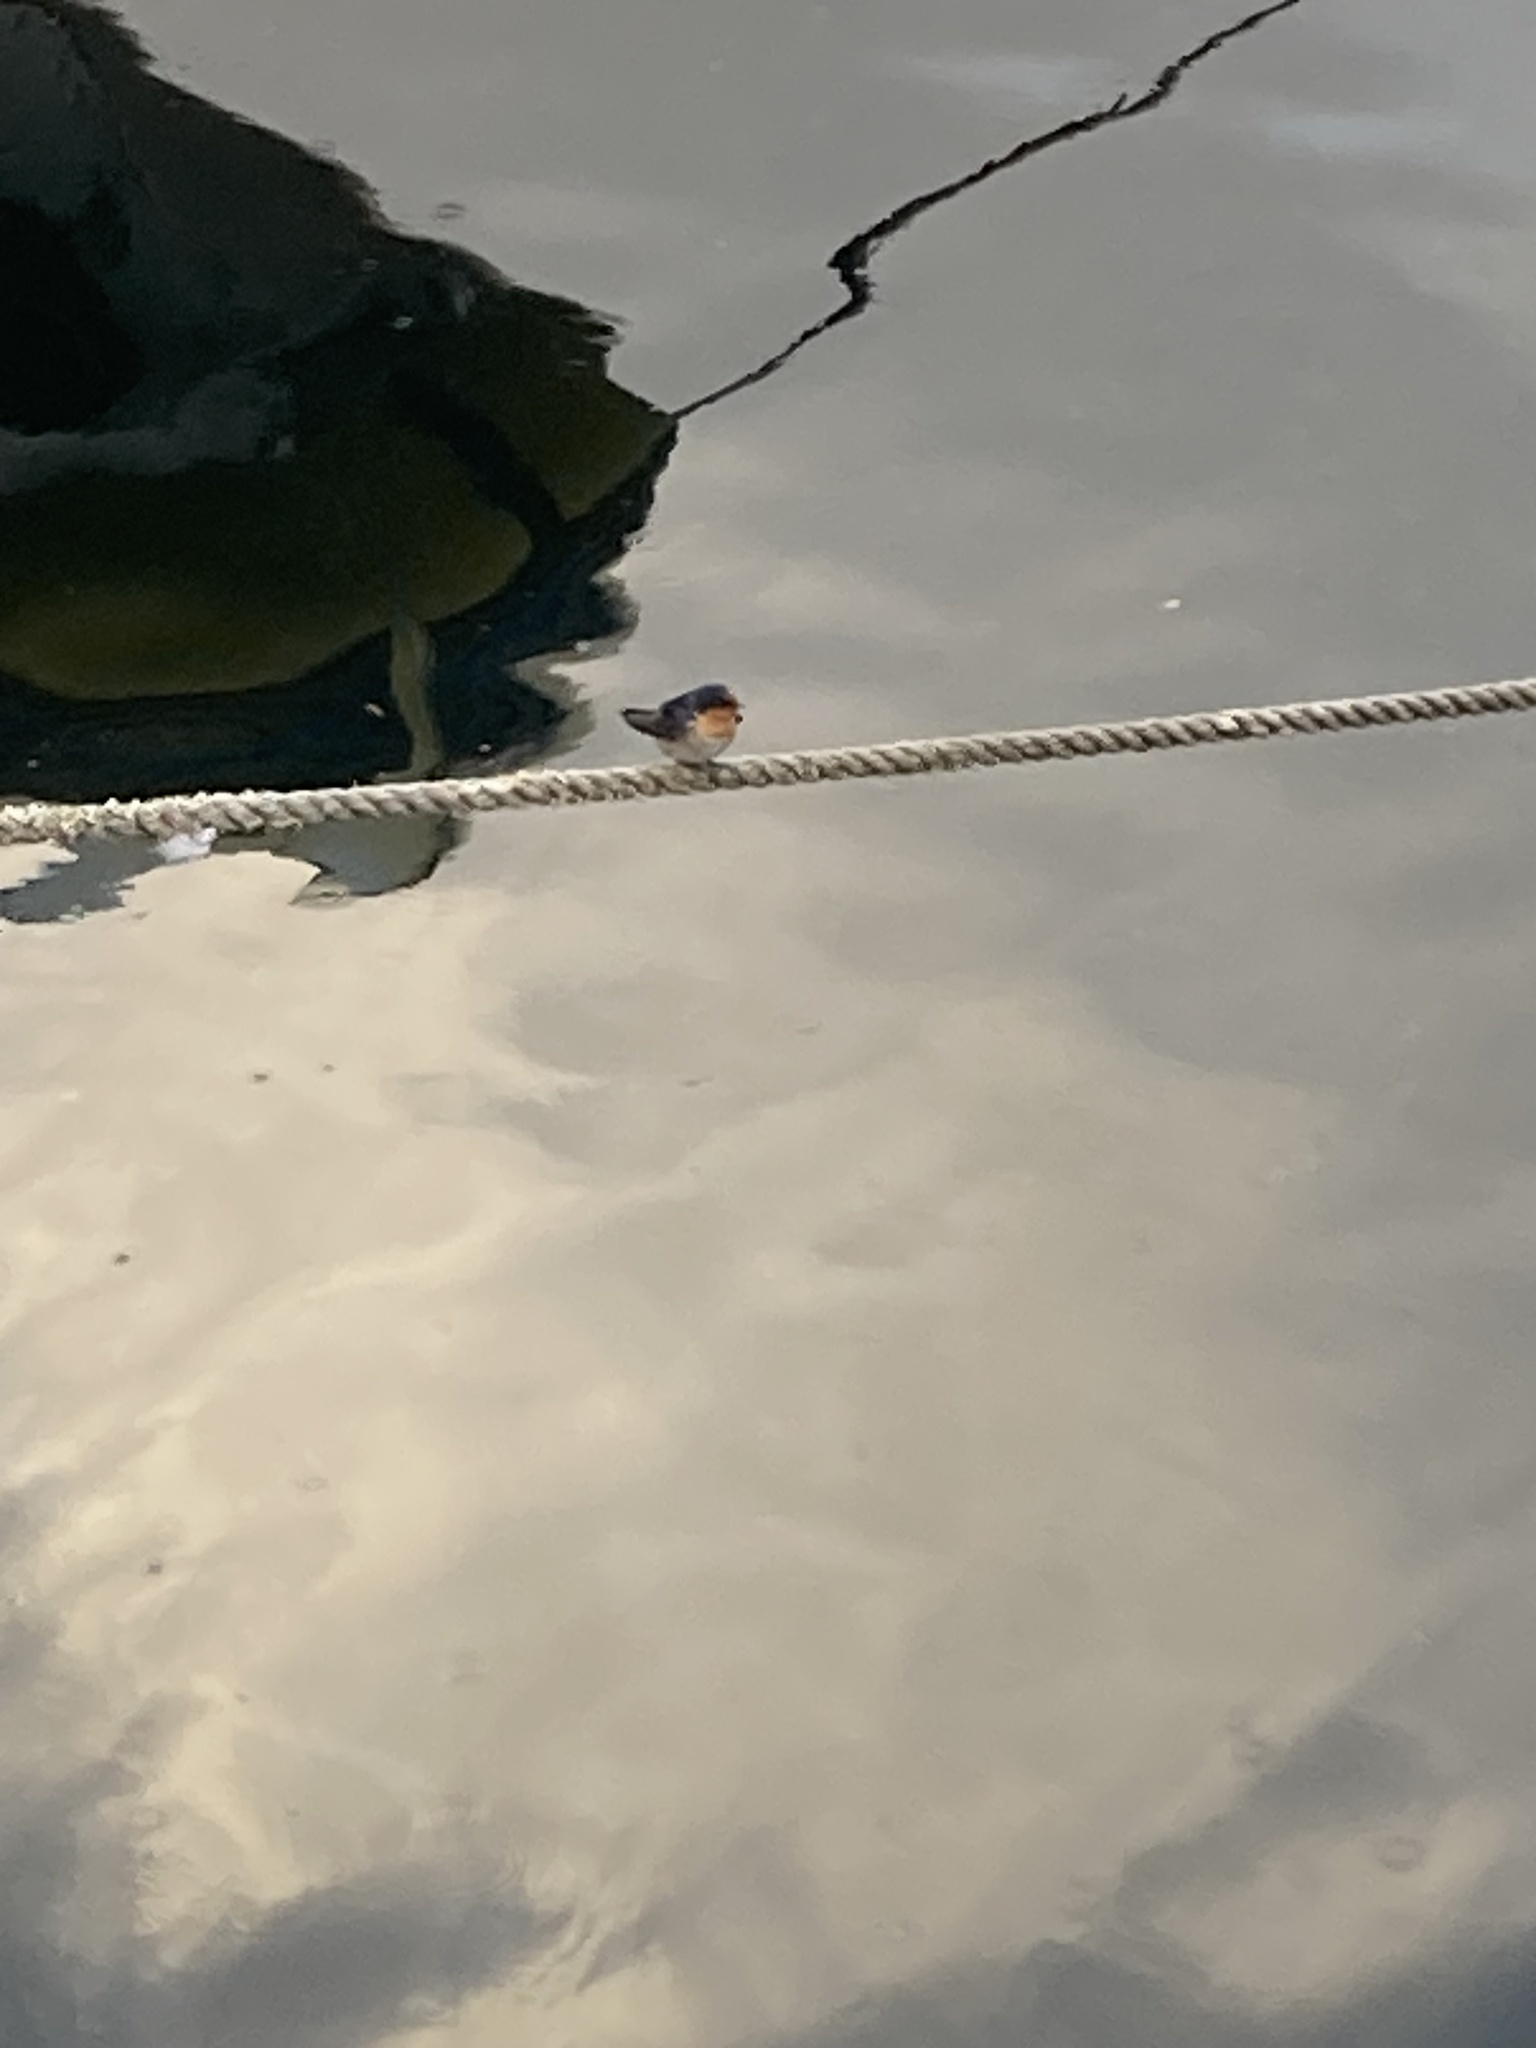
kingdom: Animalia
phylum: Chordata
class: Aves
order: Passeriformes
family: Hirundinidae
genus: Hirundo
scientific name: Hirundo neoxena
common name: Welcome swallow
